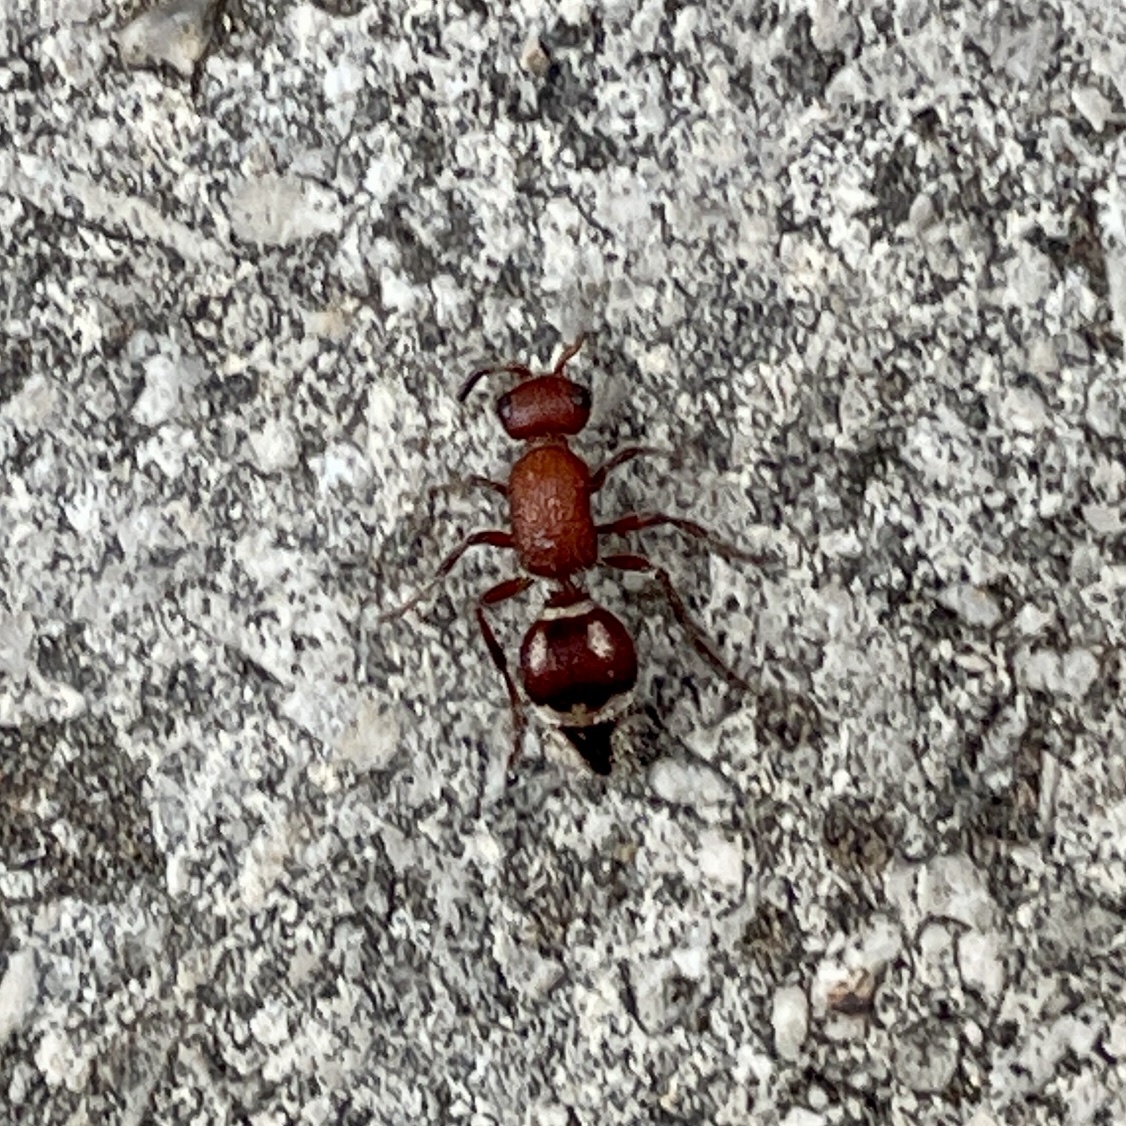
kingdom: Animalia
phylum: Arthropoda
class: Insecta
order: Hymenoptera
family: Mutillidae
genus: Timulla
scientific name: Timulla
